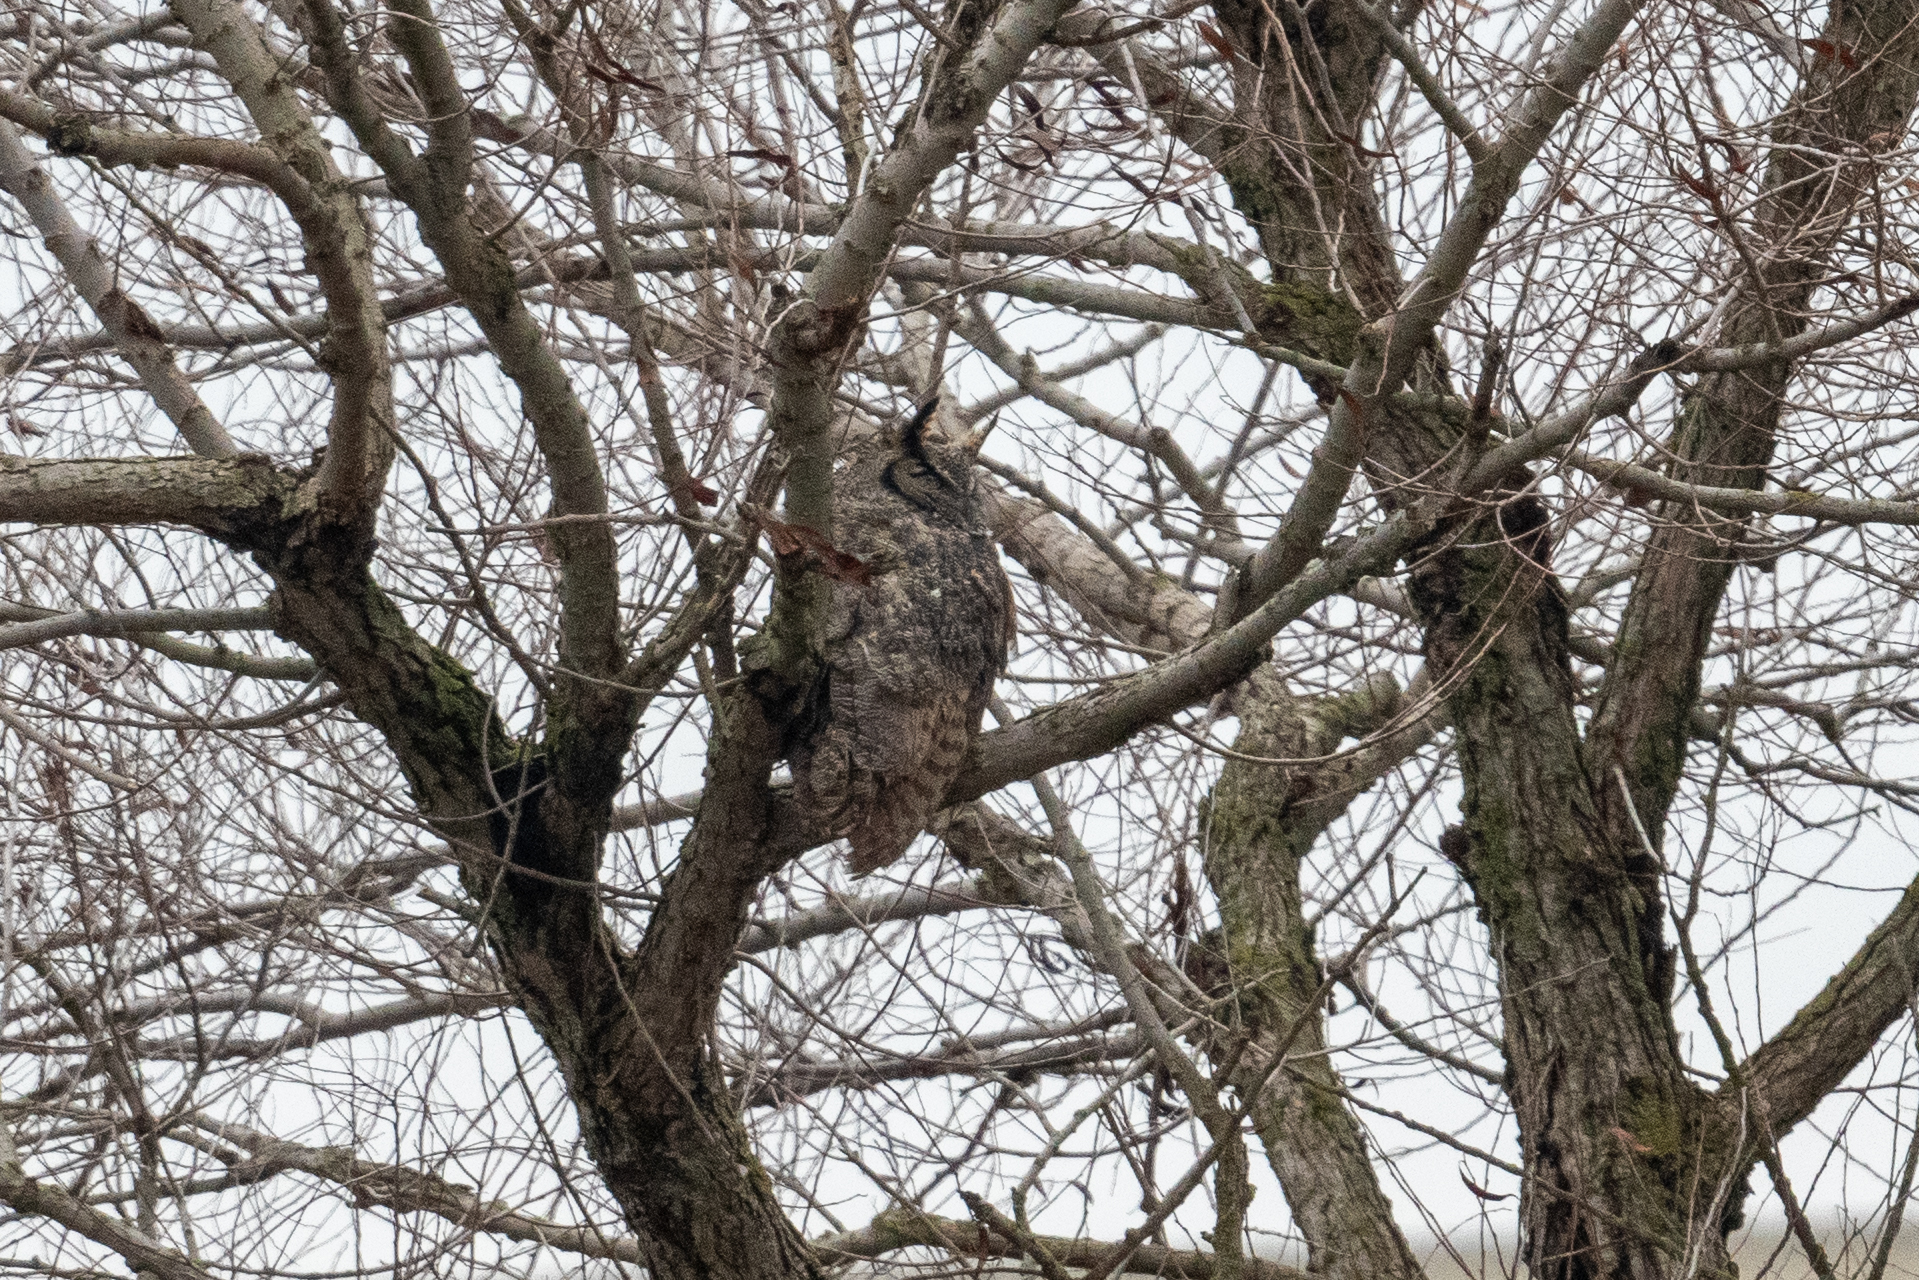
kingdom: Animalia
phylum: Chordata
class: Aves
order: Strigiformes
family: Strigidae
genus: Bubo
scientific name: Bubo virginianus
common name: Great horned owl
